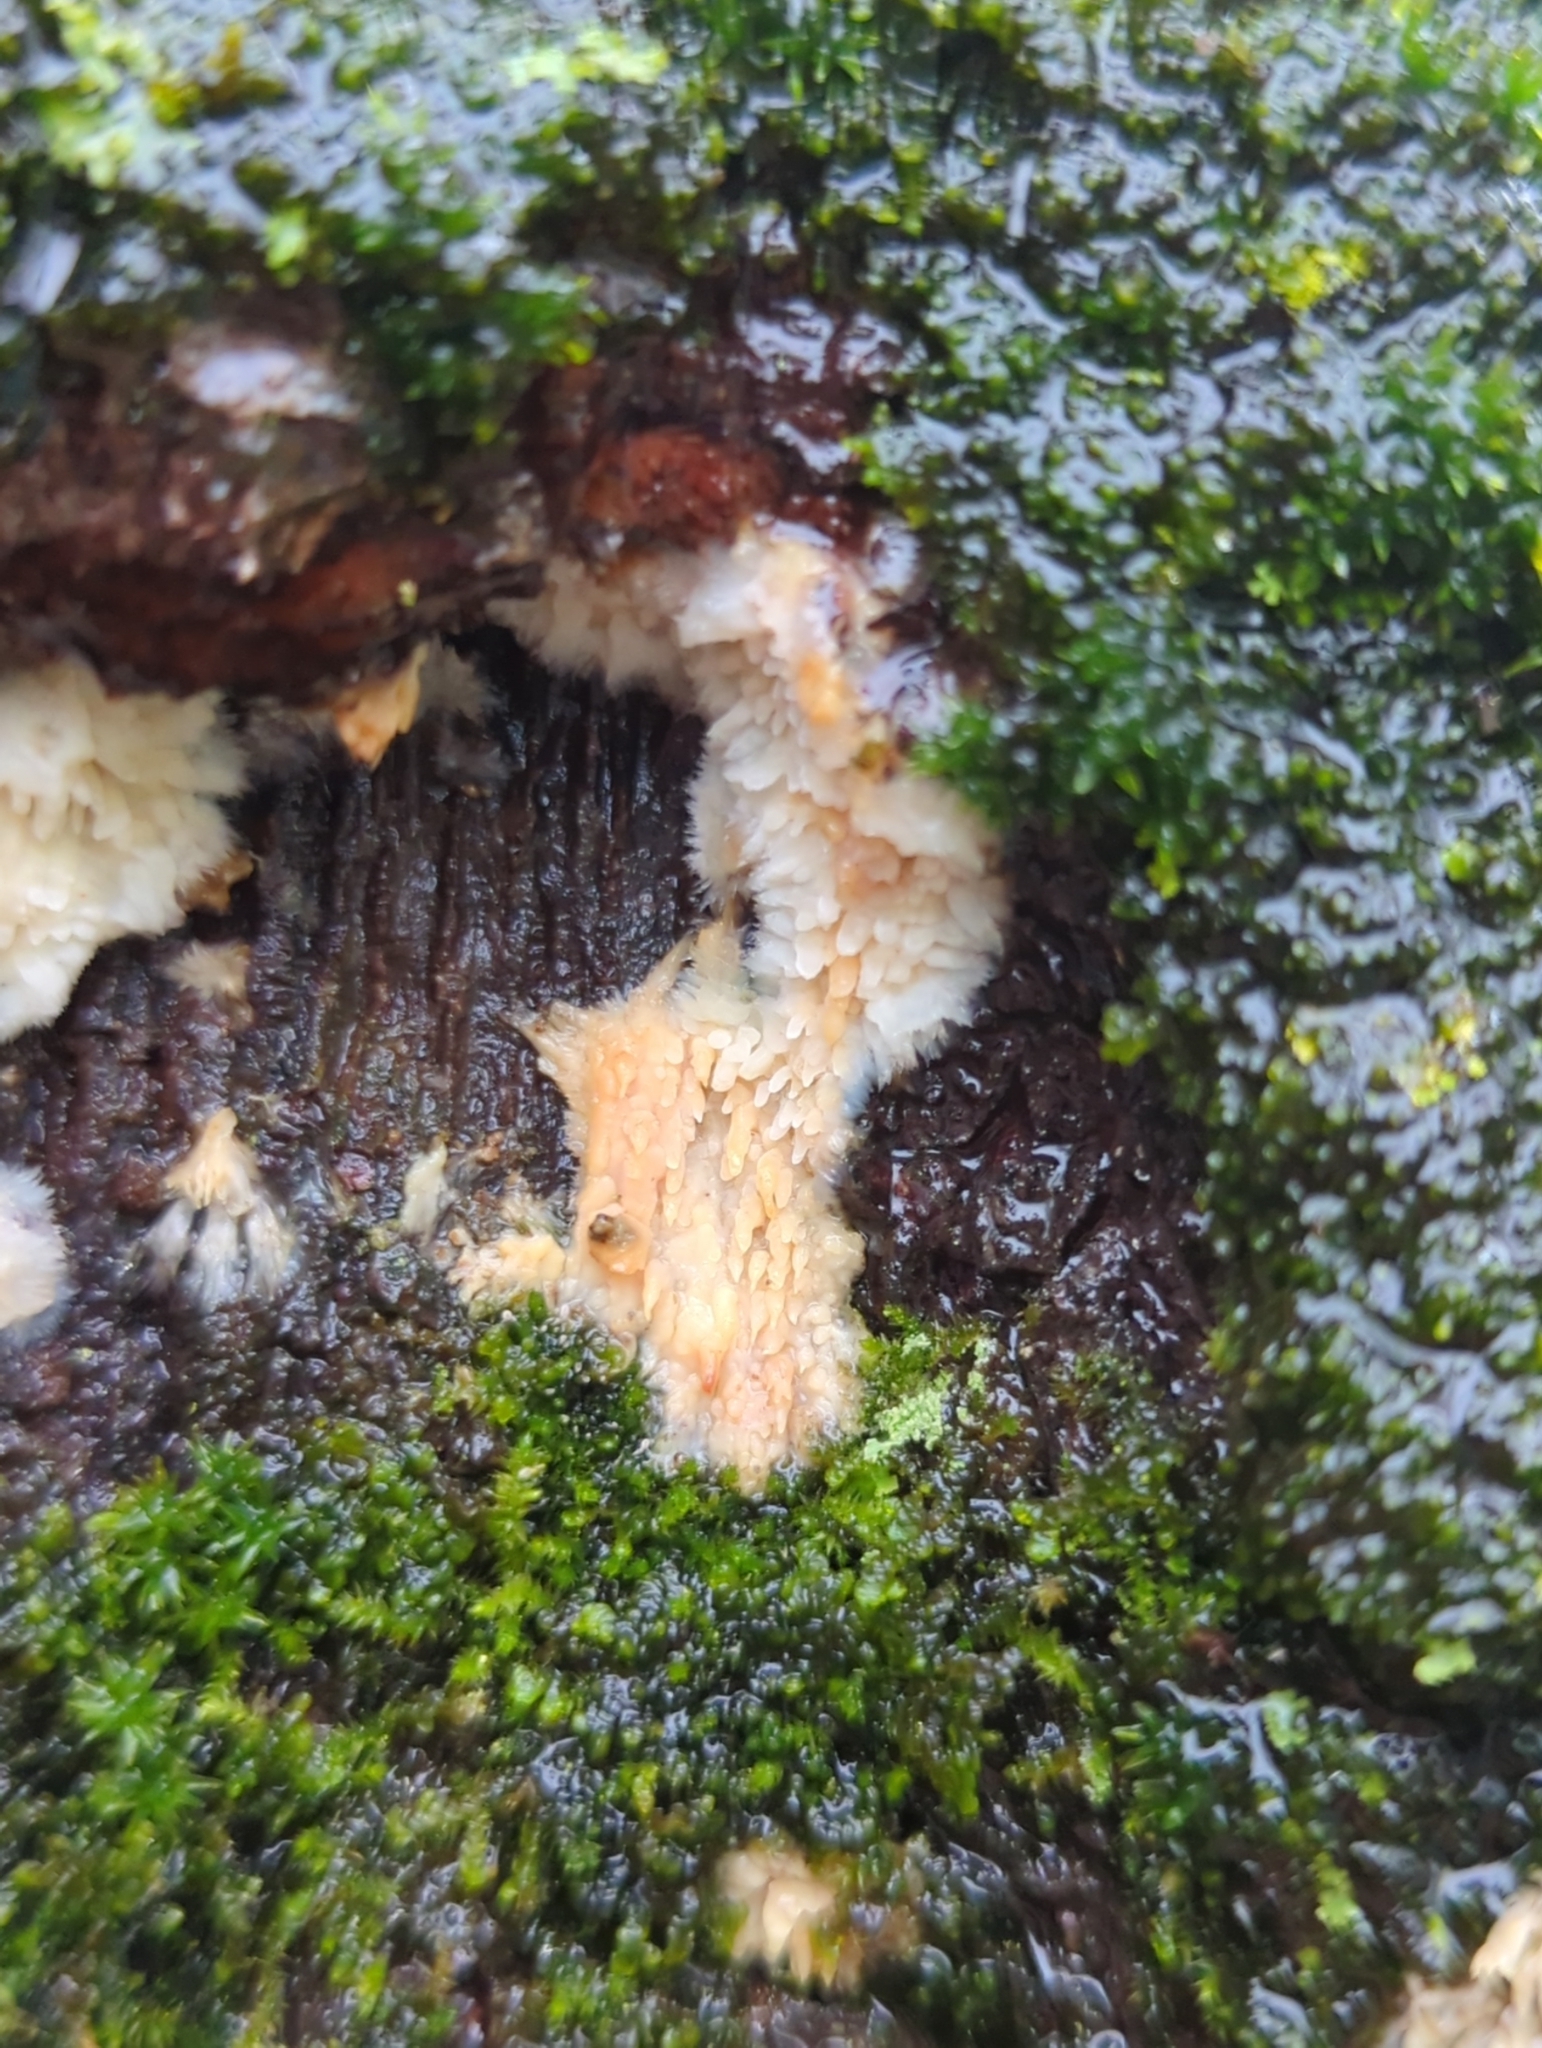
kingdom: Fungi
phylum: Basidiomycota
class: Agaricomycetes
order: Agaricales
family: Radulomycetaceae
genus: Radulomyces
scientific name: Radulomyces copelandii
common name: Asian beauty
